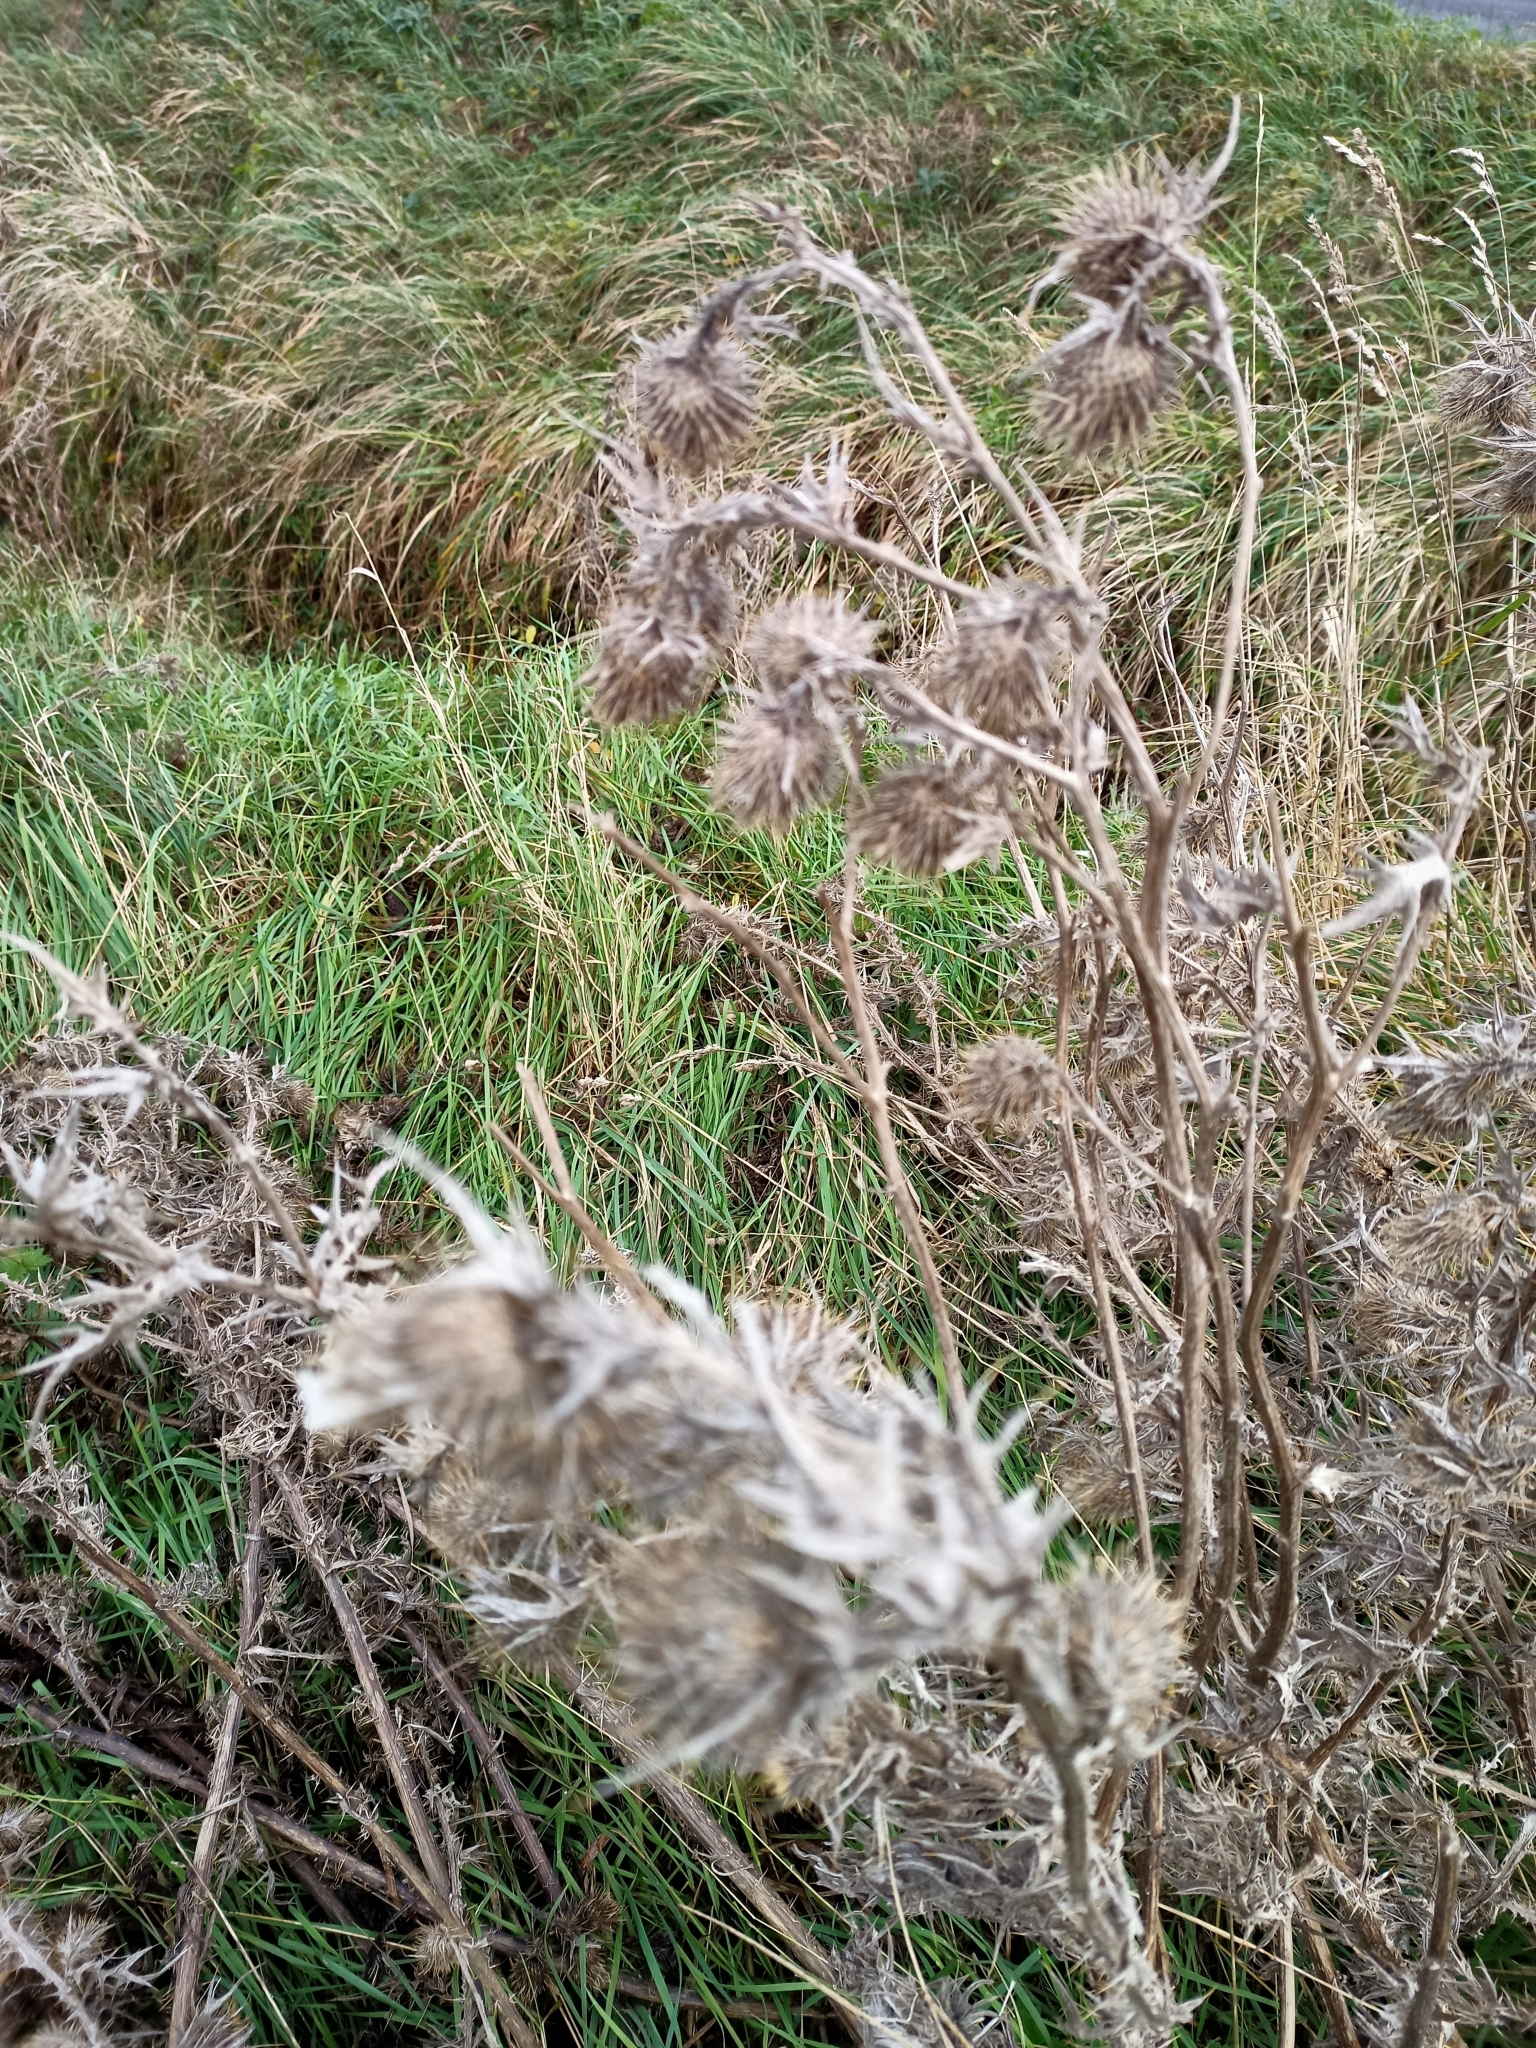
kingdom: Plantae
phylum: Tracheophyta
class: Magnoliopsida
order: Asterales
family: Asteraceae
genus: Cirsium
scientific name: Cirsium vulgare
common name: Bull thistle
